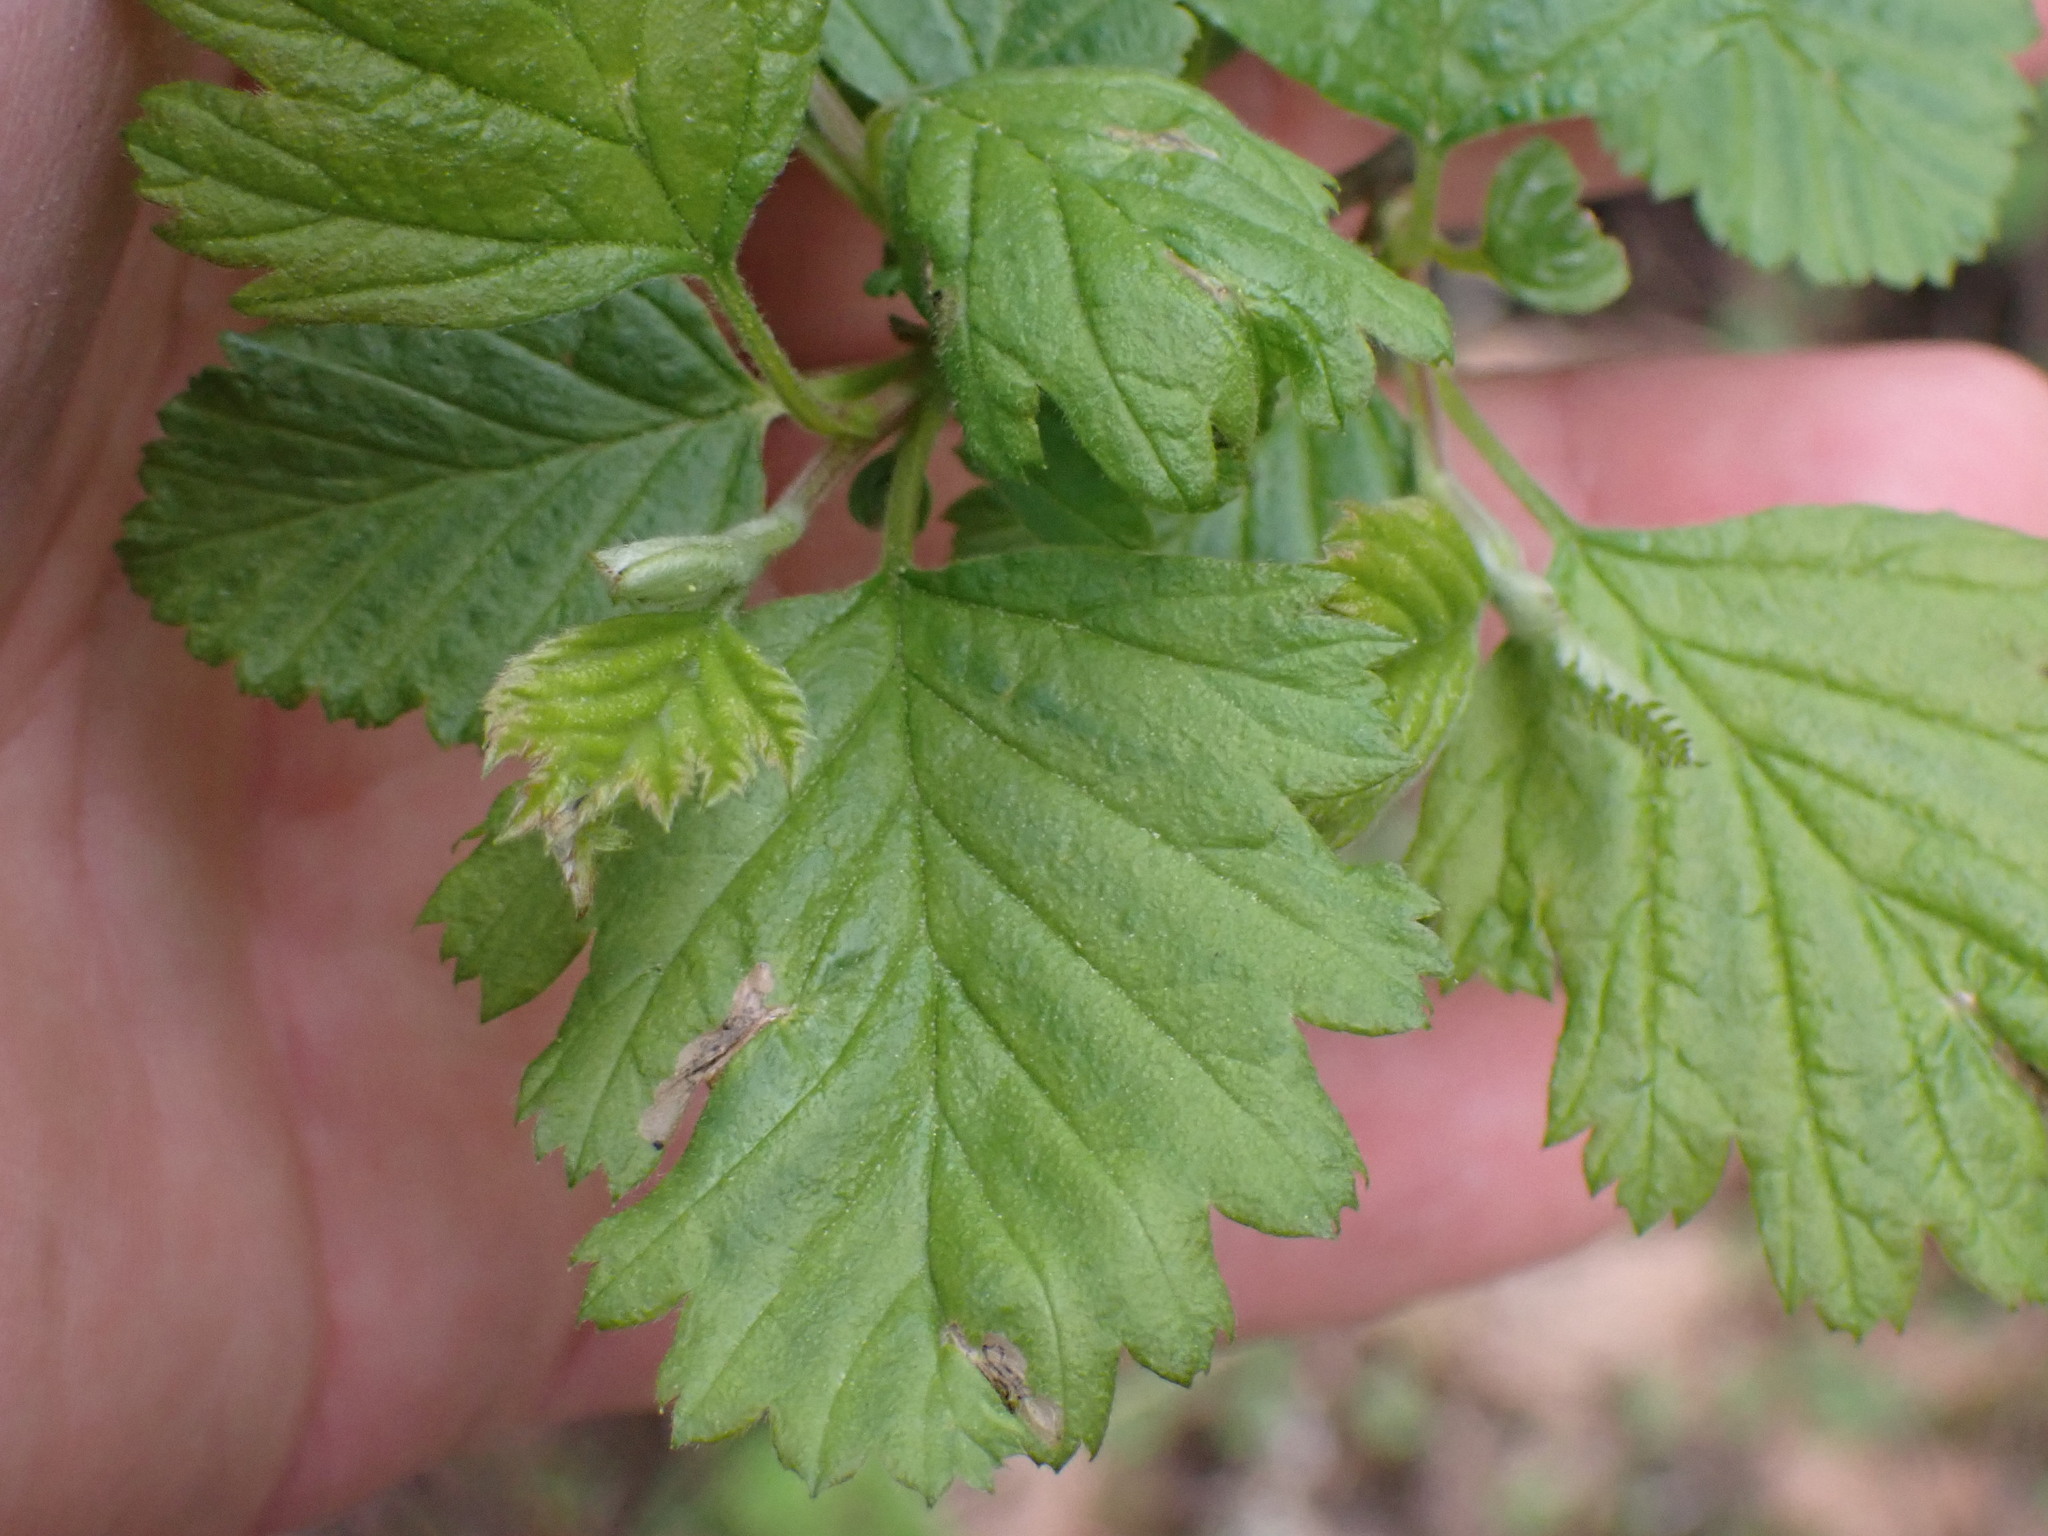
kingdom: Plantae
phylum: Tracheophyta
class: Magnoliopsida
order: Rosales
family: Rosaceae
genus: Holodiscus
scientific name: Holodiscus discolor
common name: Oceanspray
